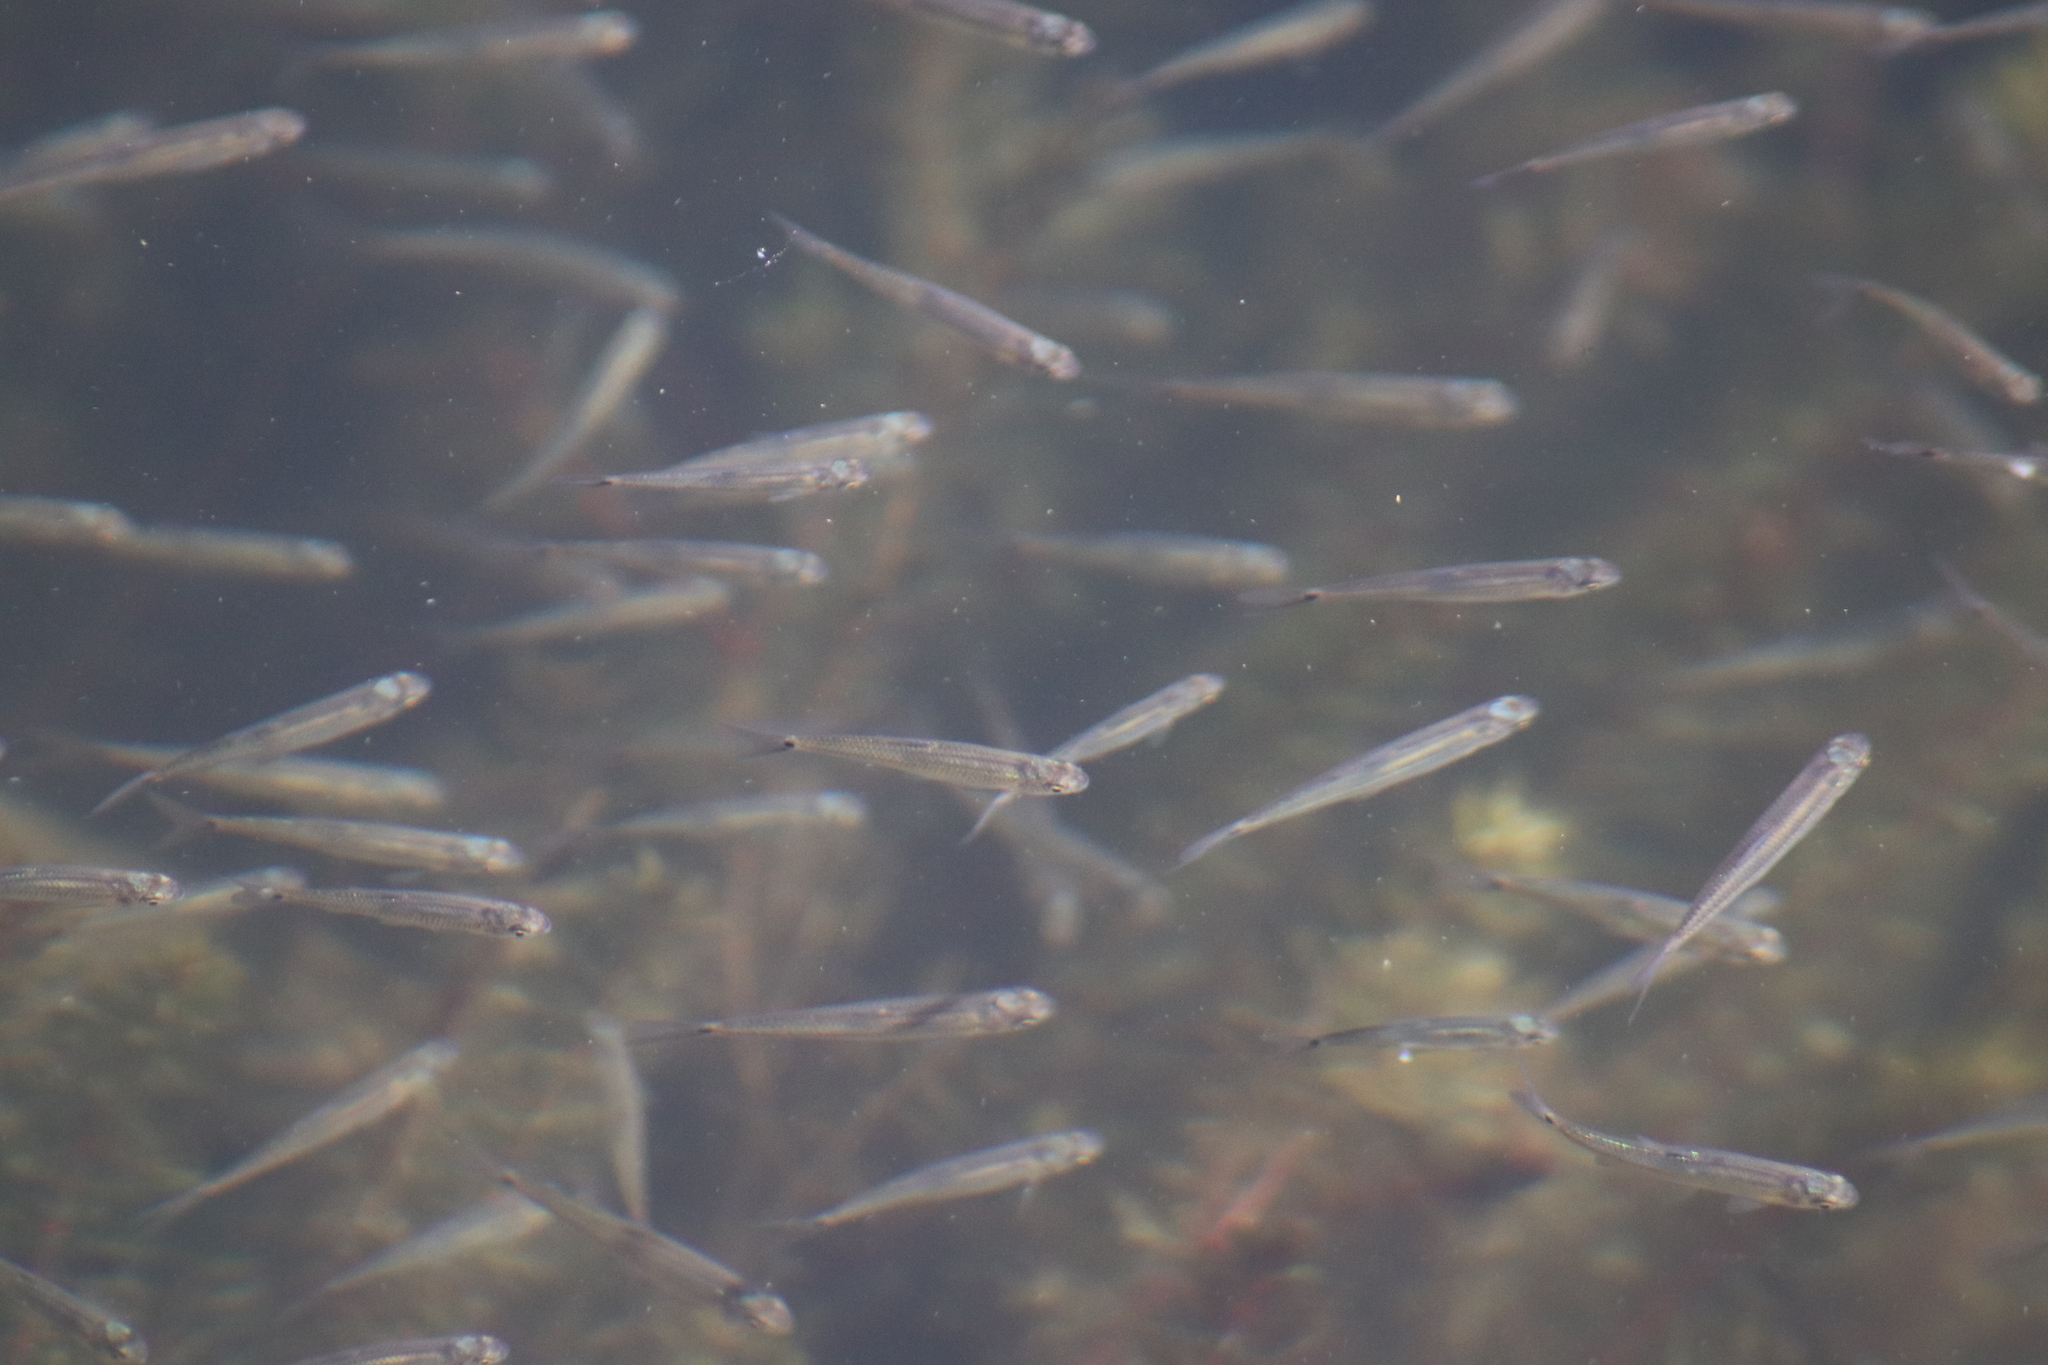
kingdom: Animalia
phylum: Chordata
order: Cypriniformes
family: Cyprinidae
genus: Notropis
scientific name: Notropis
